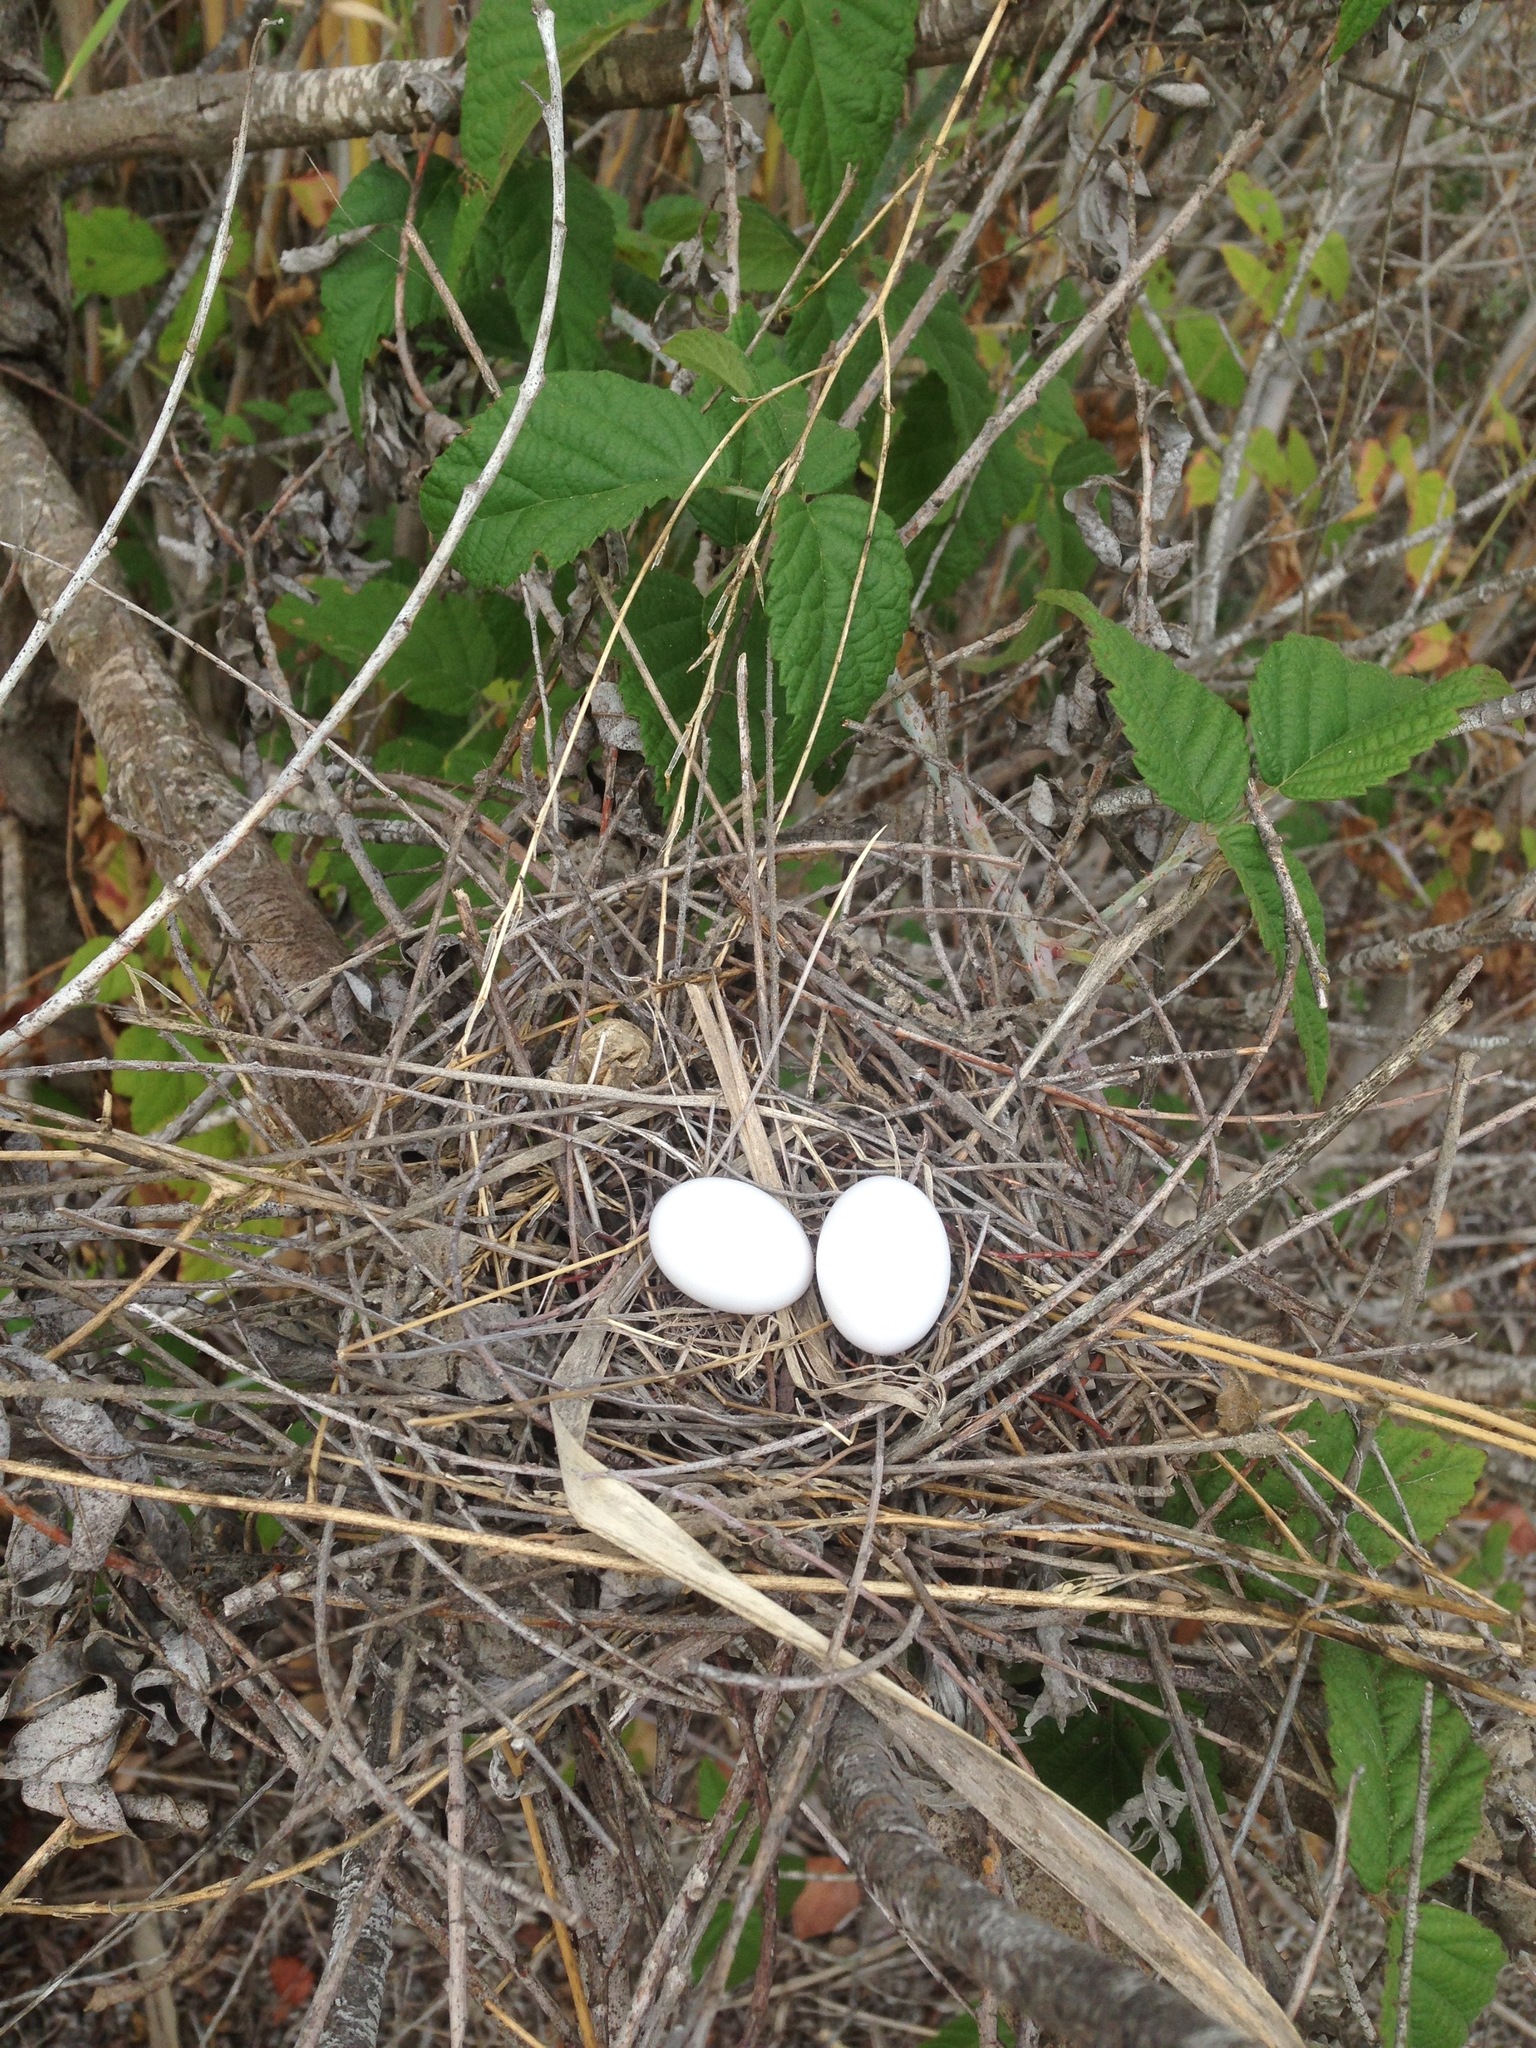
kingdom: Animalia
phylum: Chordata
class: Aves
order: Columbiformes
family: Columbidae
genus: Zenaida
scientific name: Zenaida macroura
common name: Mourning dove
